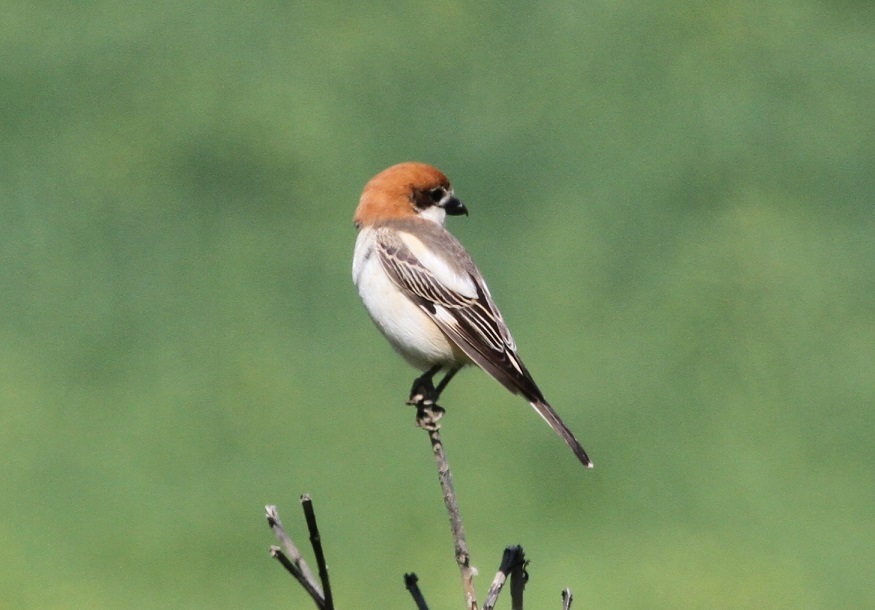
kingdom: Animalia
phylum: Chordata
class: Aves
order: Passeriformes
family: Laniidae
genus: Lanius
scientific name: Lanius senator
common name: Woodchat shrike
